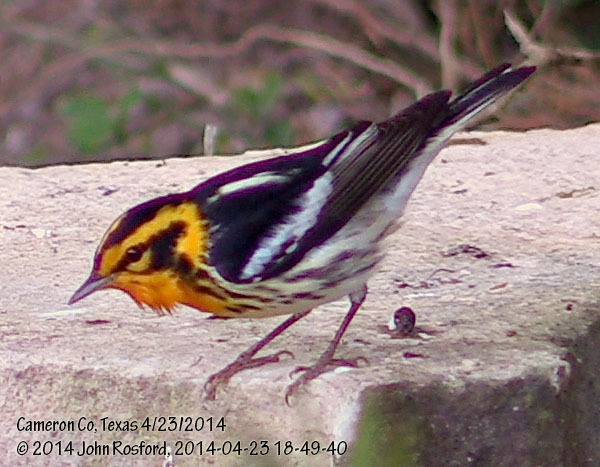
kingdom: Animalia
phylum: Chordata
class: Aves
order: Passeriformes
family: Parulidae
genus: Setophaga
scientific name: Setophaga fusca
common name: Blackburnian warbler
